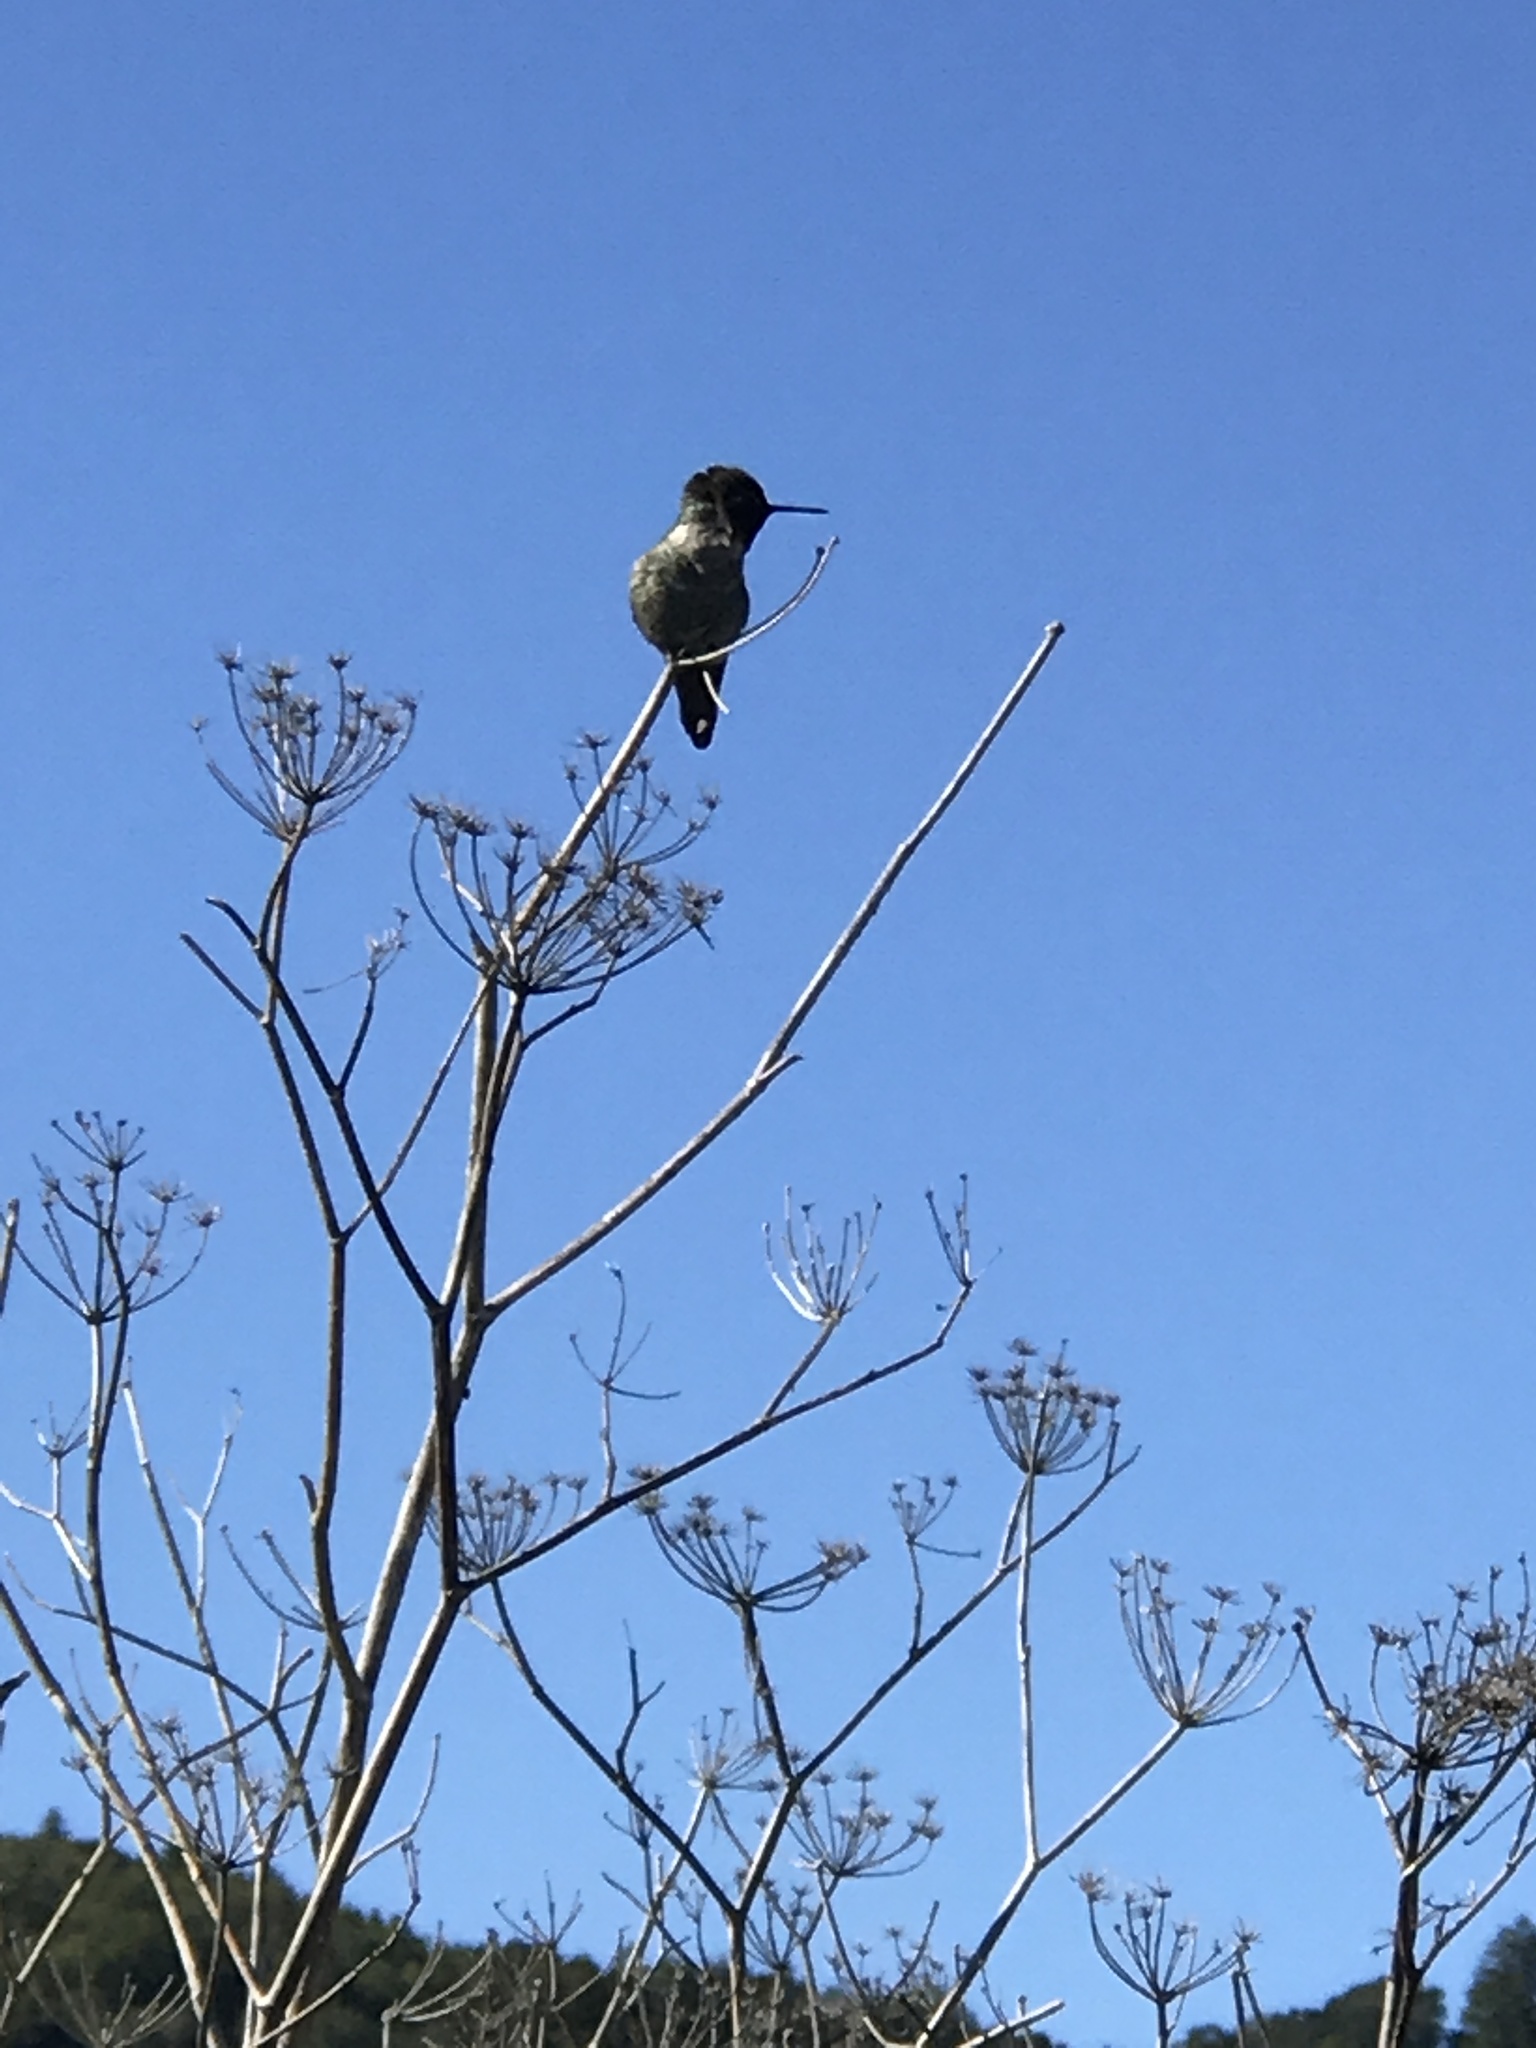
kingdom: Animalia
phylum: Chordata
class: Aves
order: Apodiformes
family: Trochilidae
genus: Calypte
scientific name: Calypte anna
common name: Anna's hummingbird
